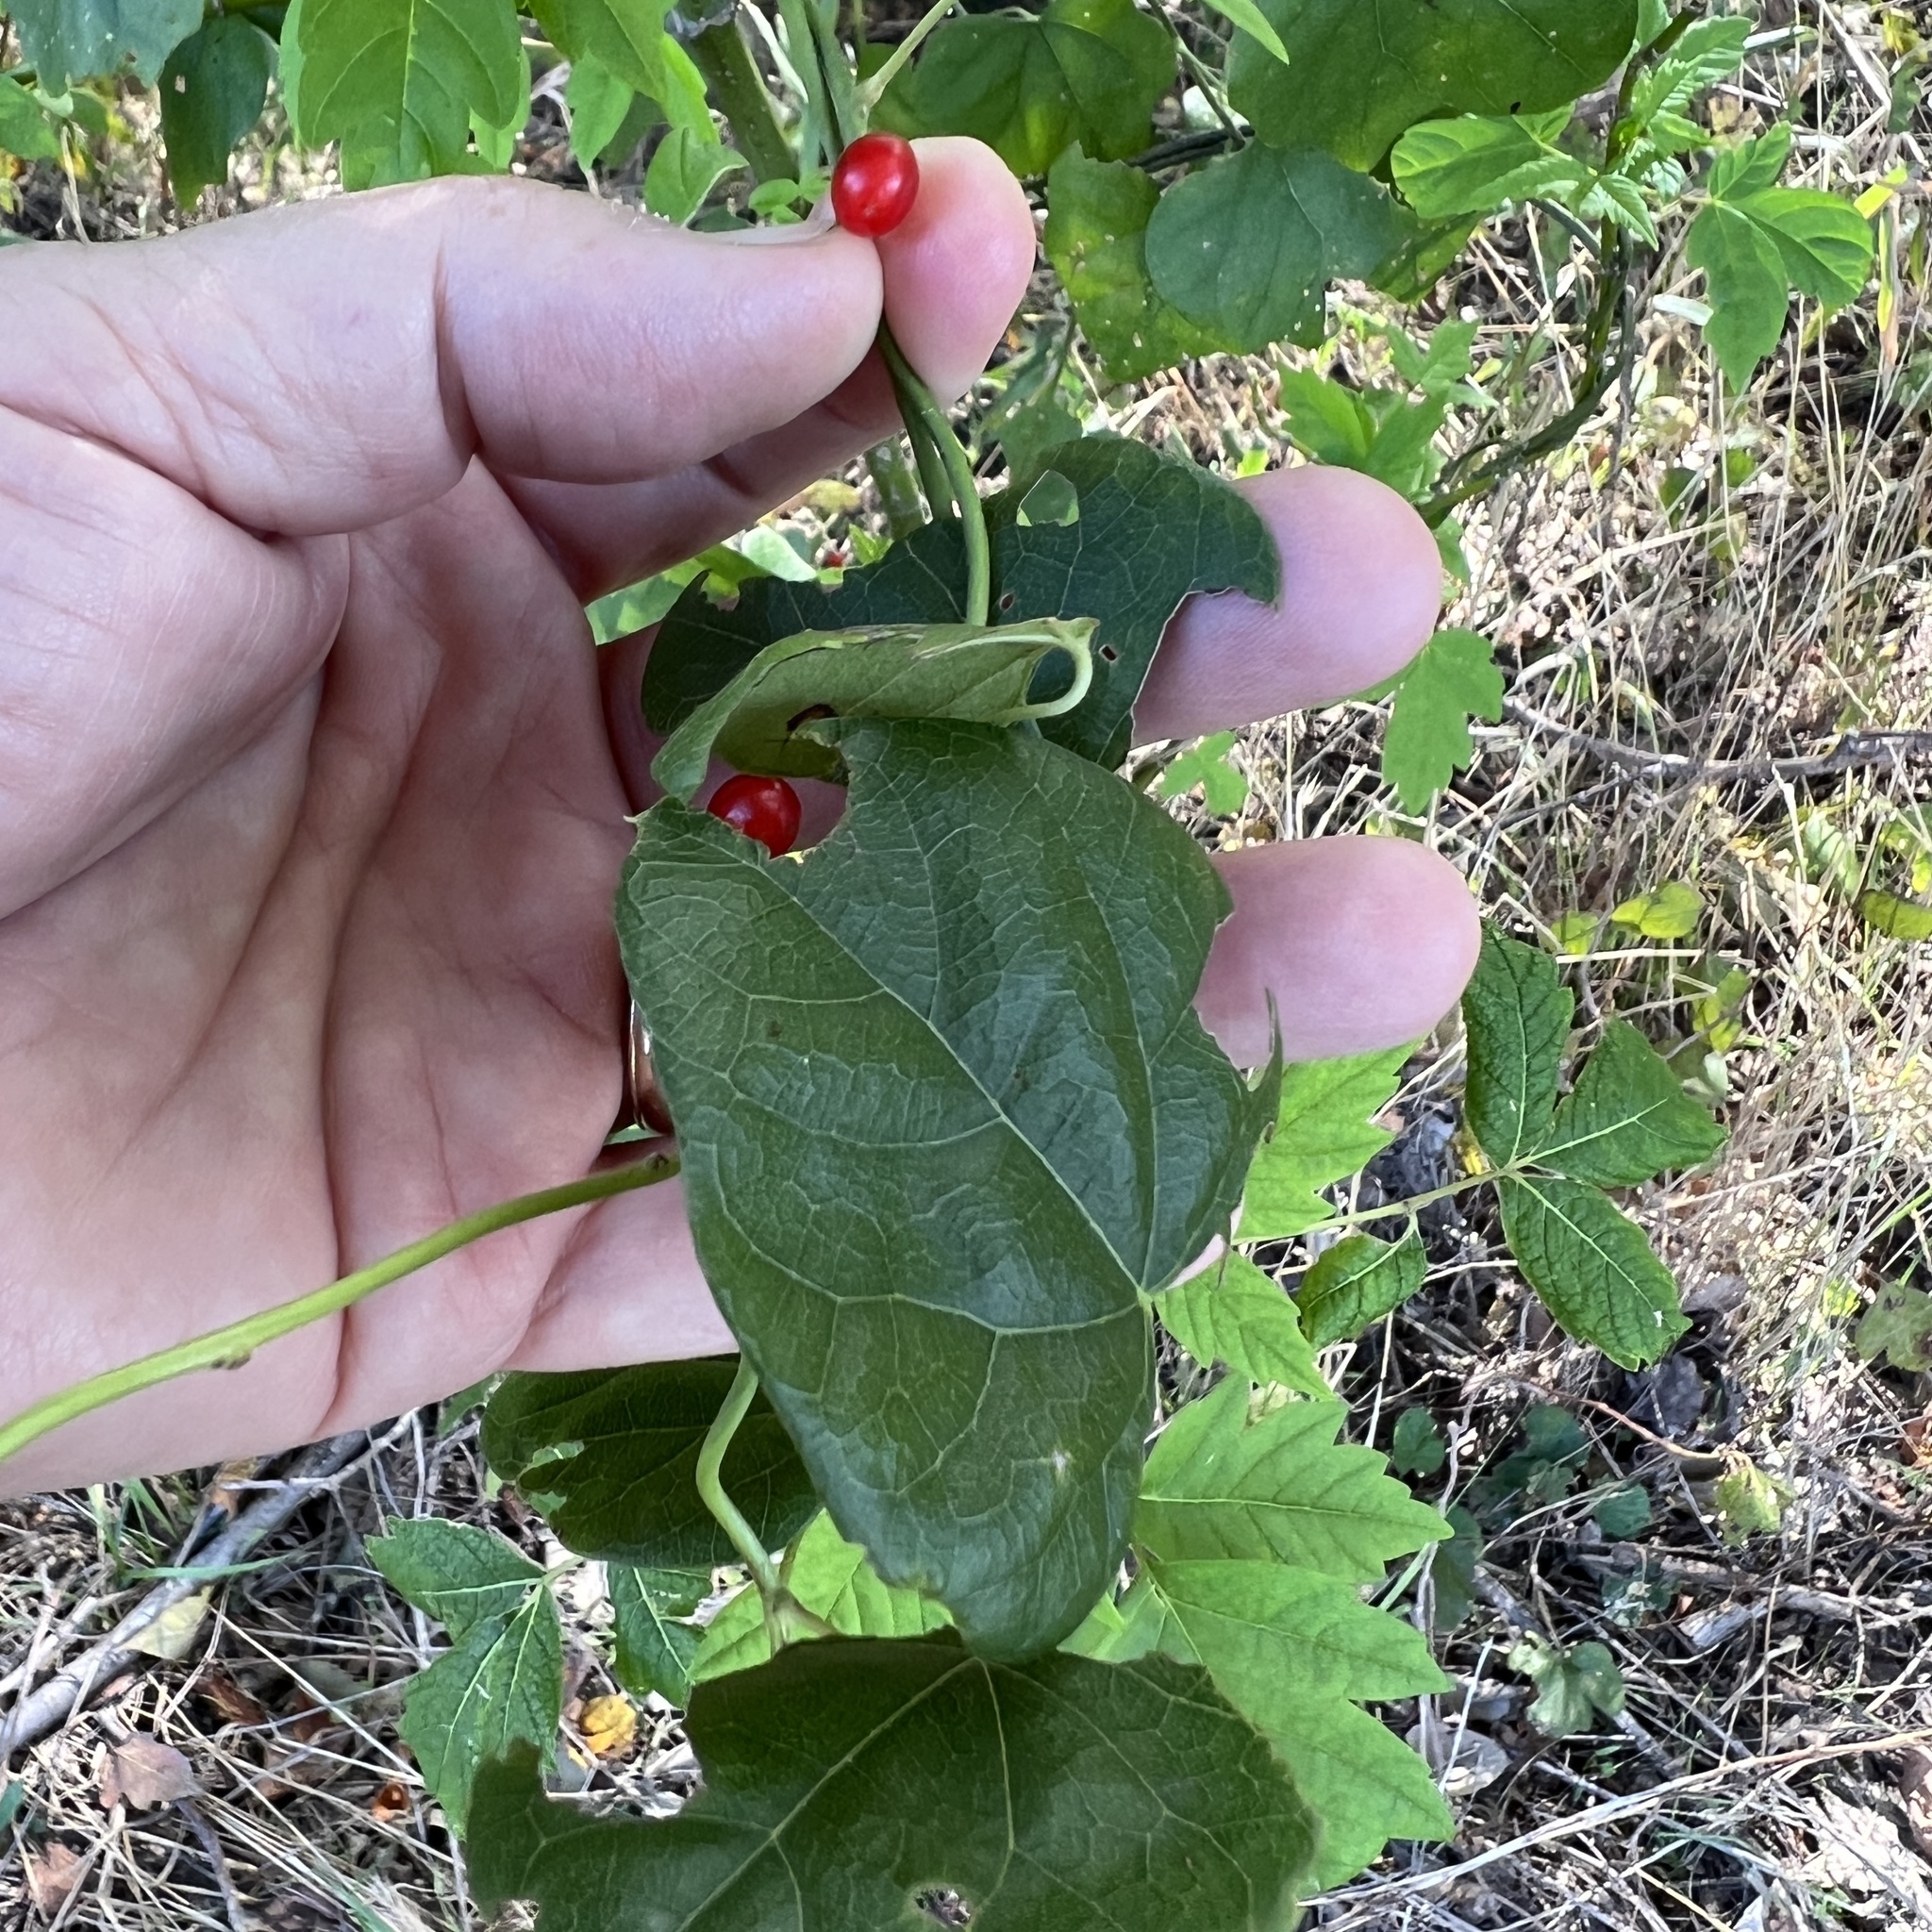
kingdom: Plantae
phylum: Tracheophyta
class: Magnoliopsida
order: Ranunculales
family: Menispermaceae
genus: Cocculus
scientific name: Cocculus carolinus
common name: Carolina moonseed
